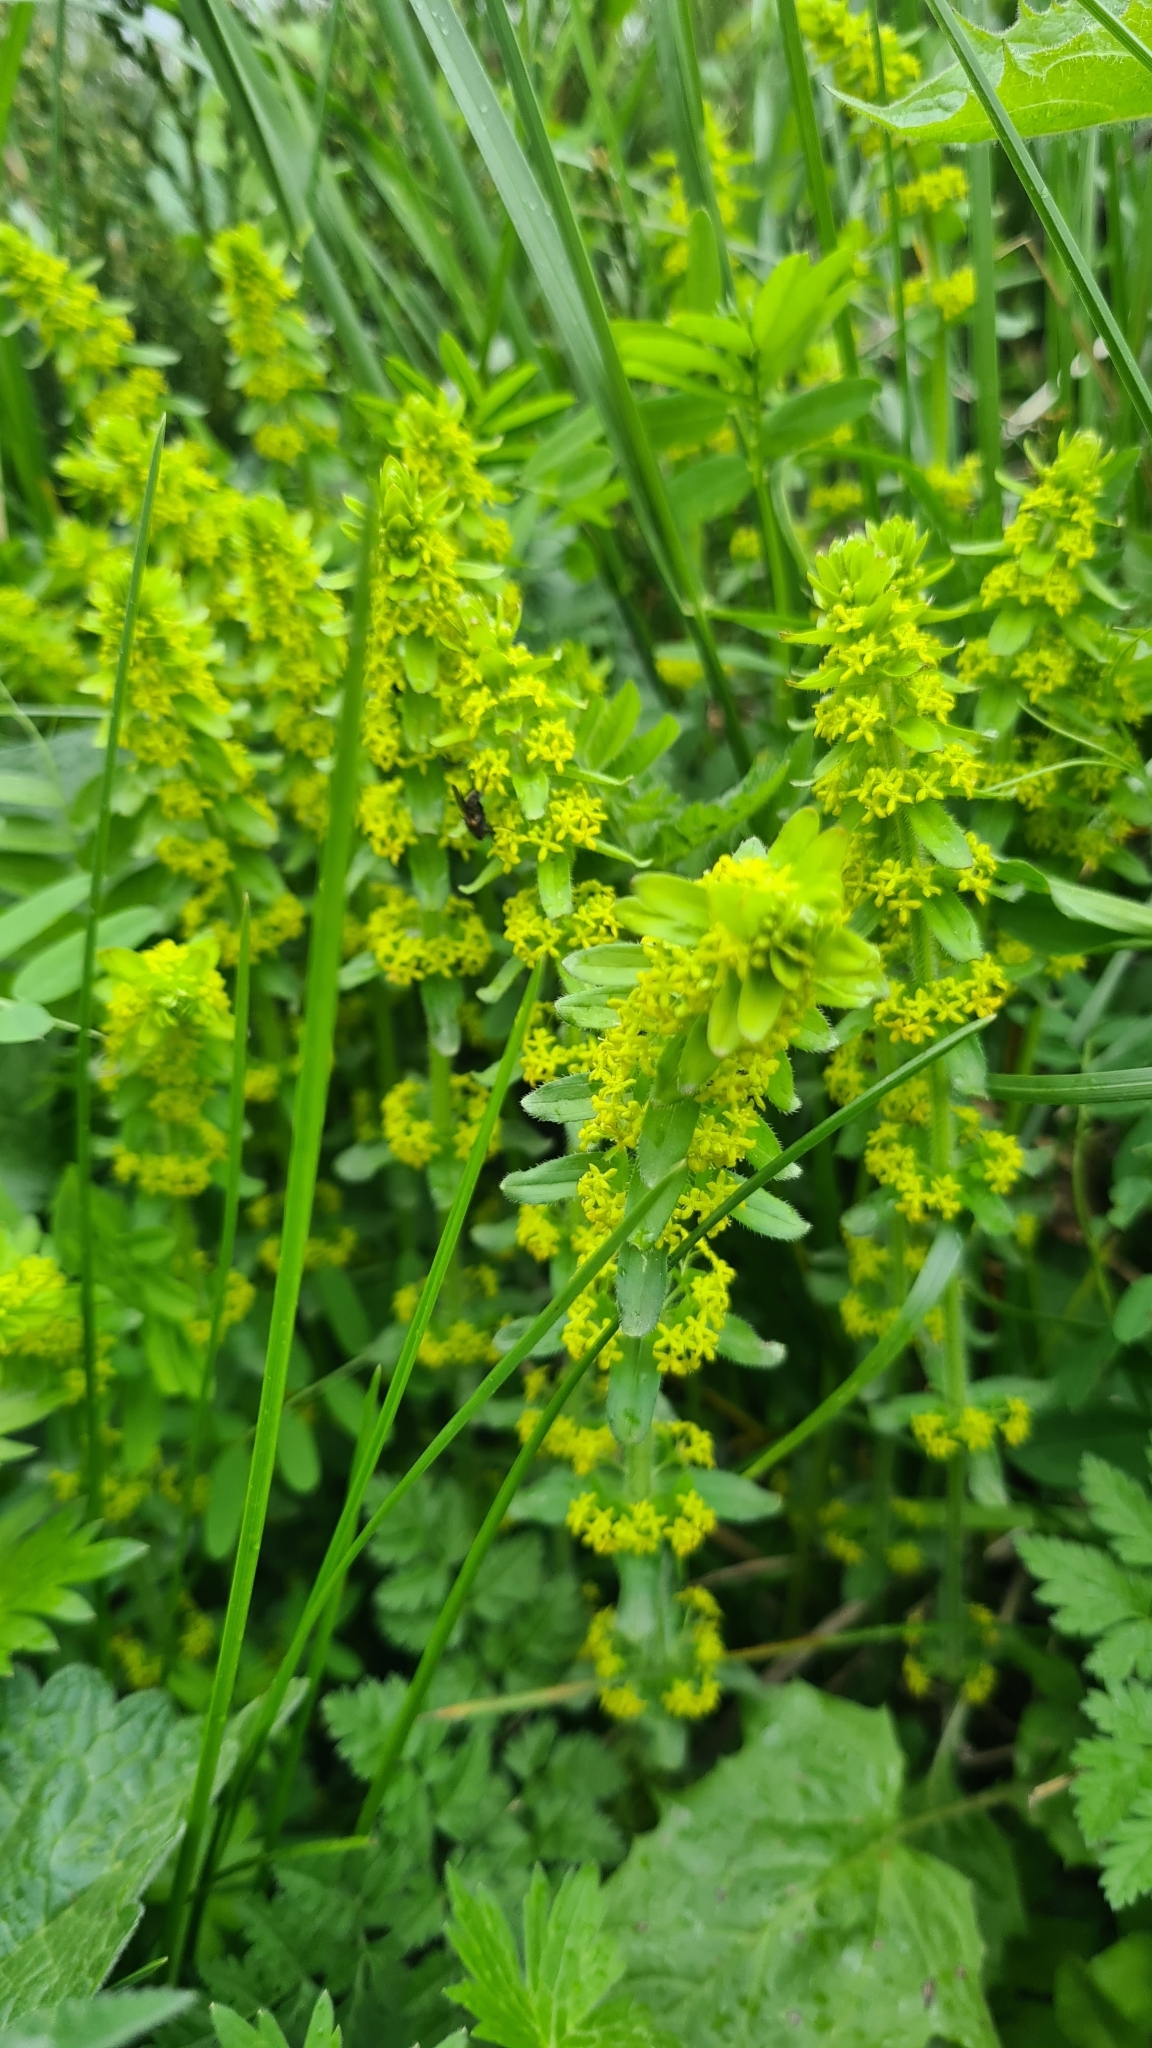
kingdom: Plantae
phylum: Tracheophyta
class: Magnoliopsida
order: Gentianales
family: Rubiaceae
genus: Cruciata
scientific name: Cruciata laevipes
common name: Crosswort
